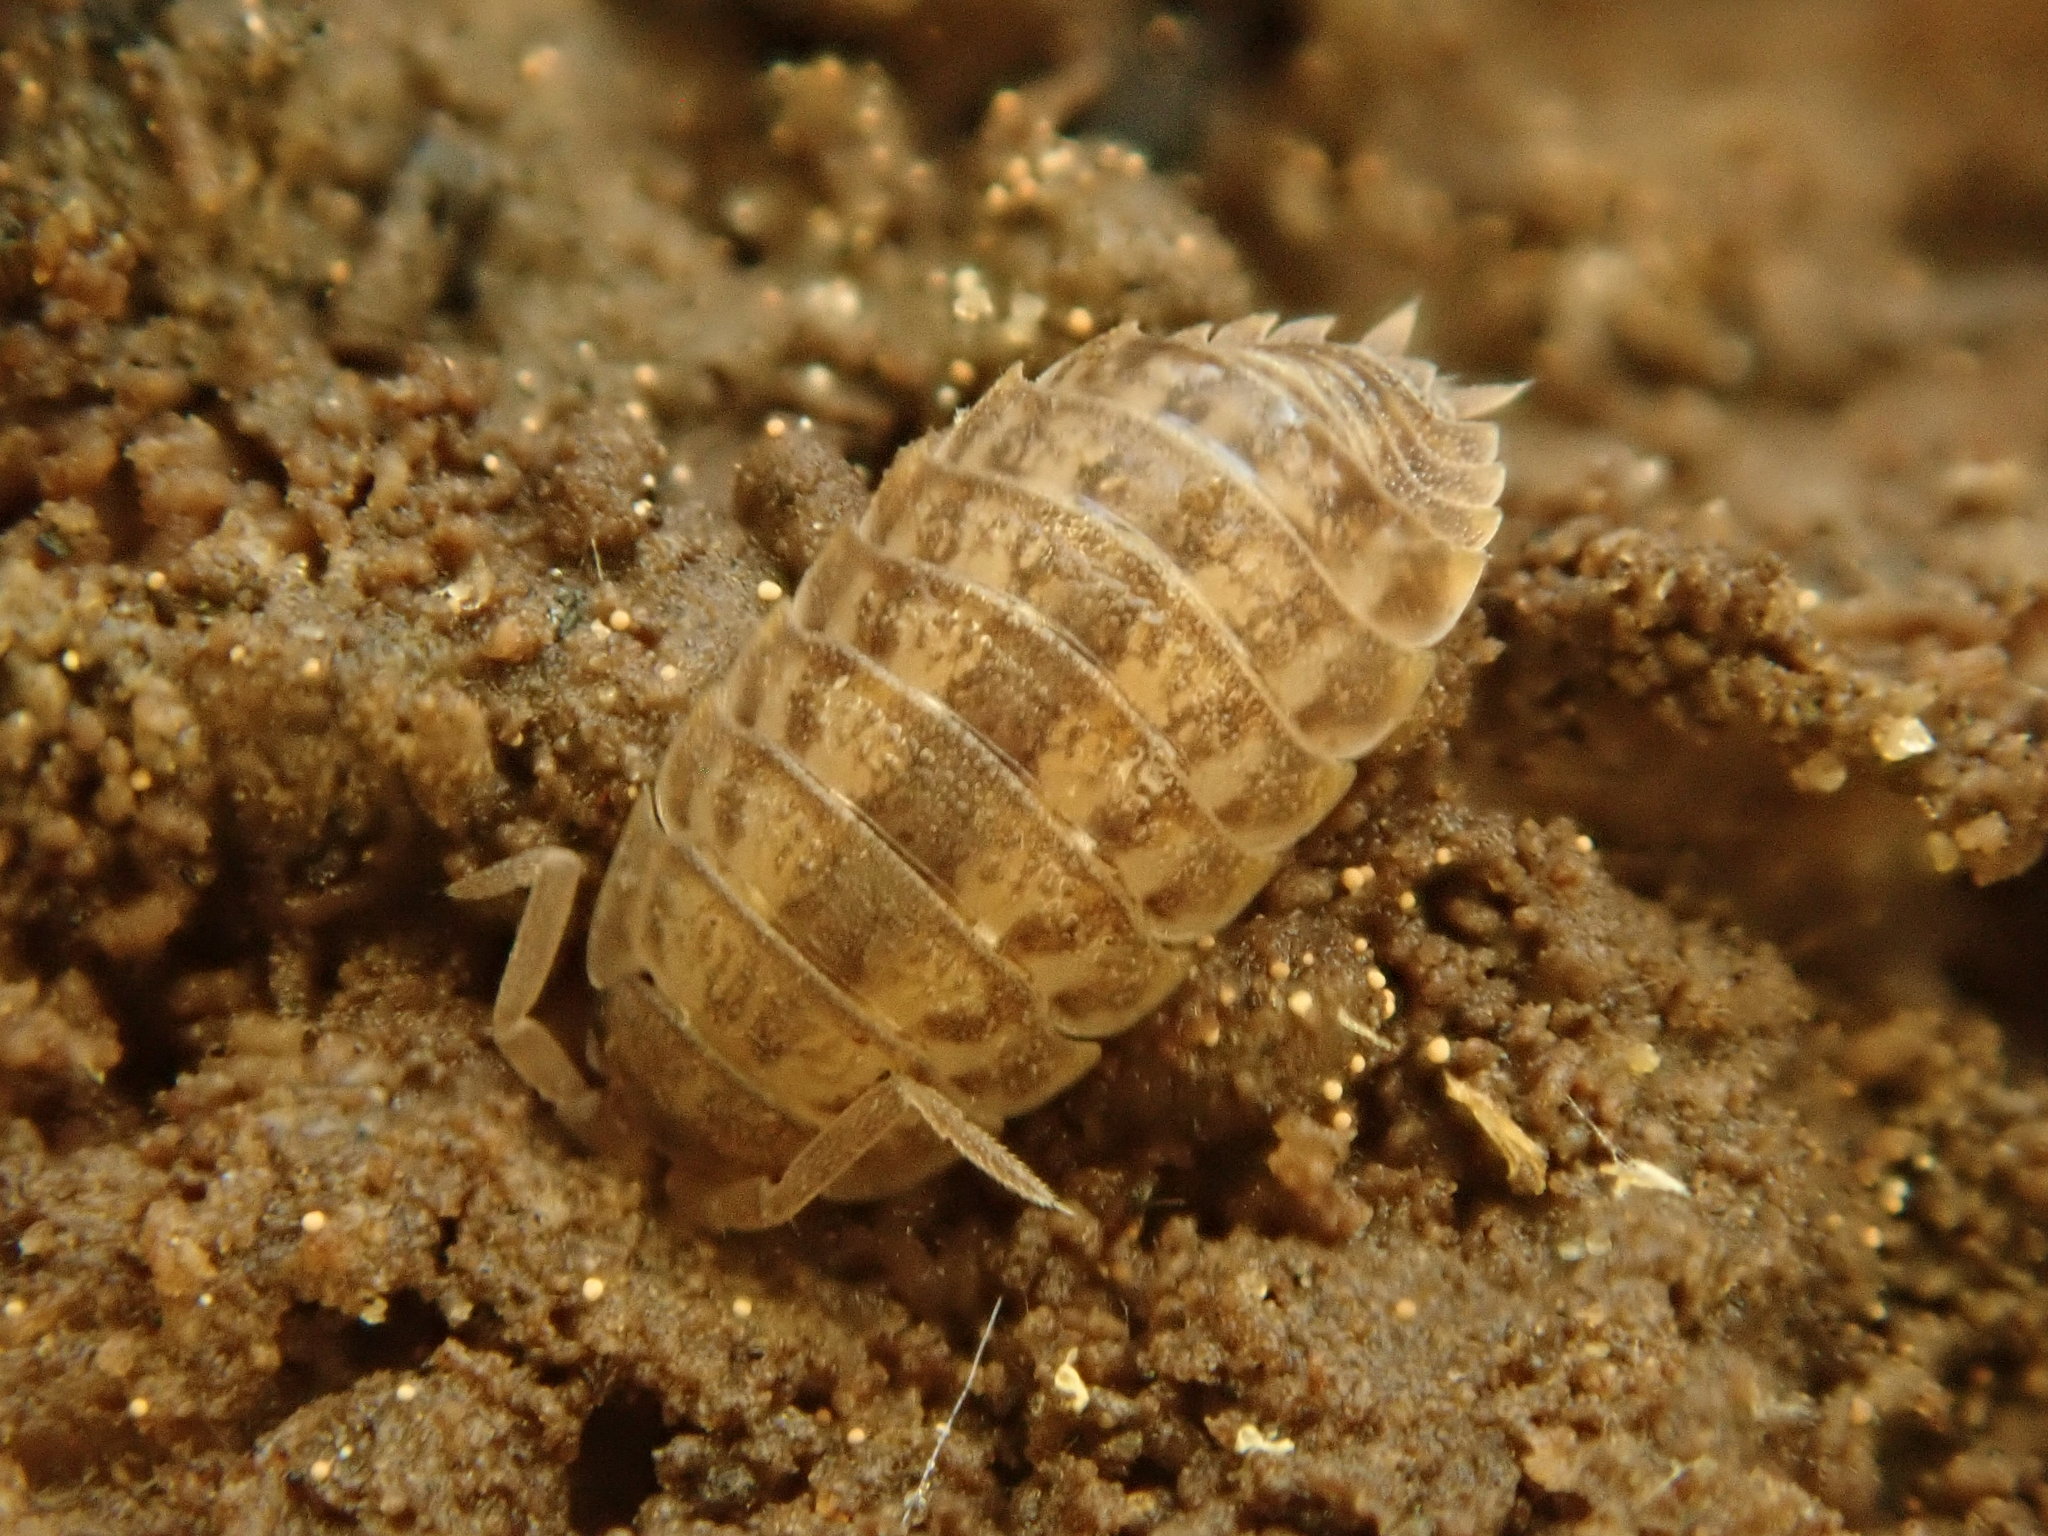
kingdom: Animalia
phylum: Arthropoda
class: Malacostraca
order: Isopoda
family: Trachelipodidae
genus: Trachelipus
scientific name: Trachelipus rathkii
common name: Isopod
